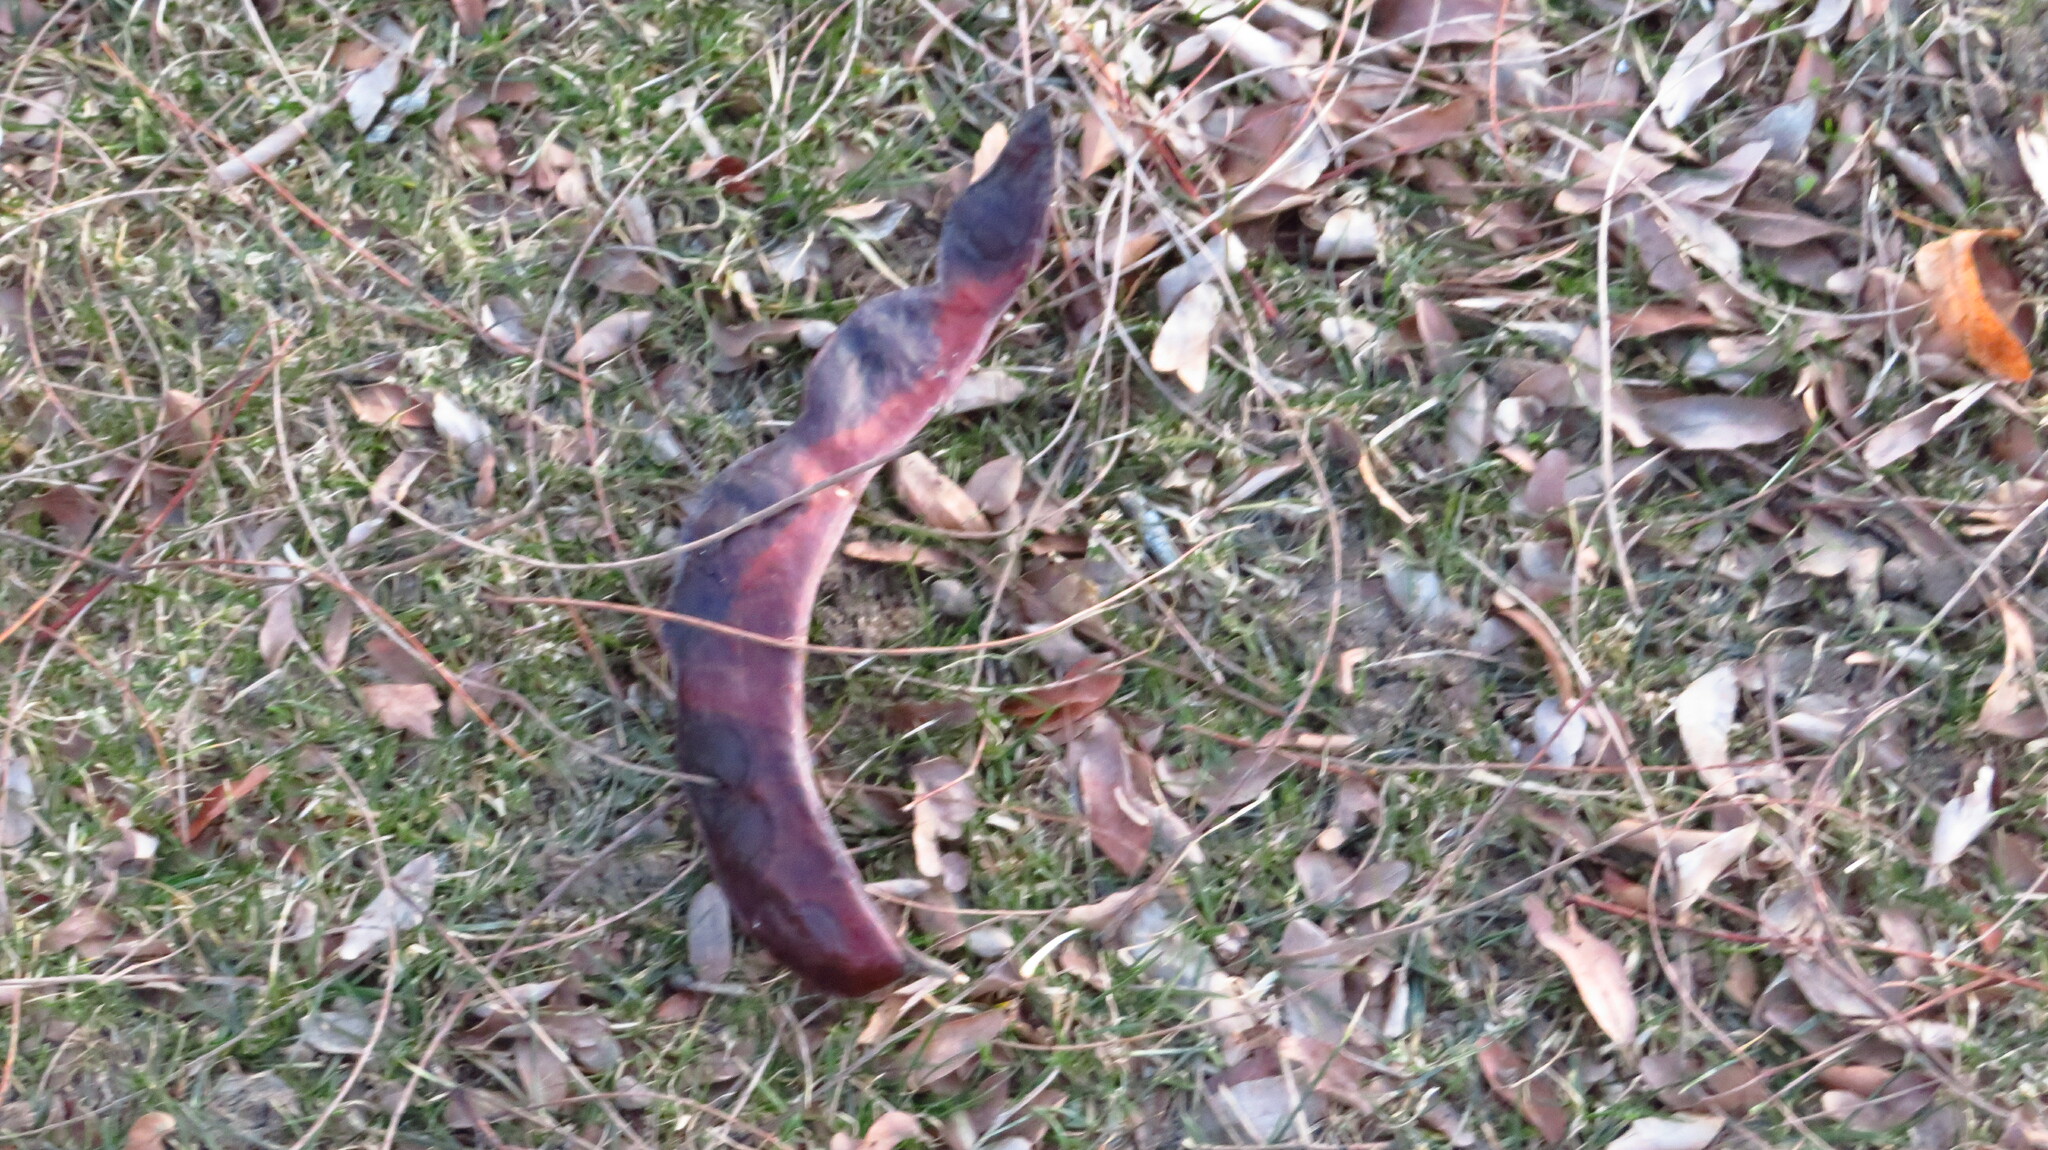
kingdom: Plantae
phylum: Tracheophyta
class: Magnoliopsida
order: Fabales
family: Fabaceae
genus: Gleditsia
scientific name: Gleditsia triacanthos
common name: Common honeylocust
